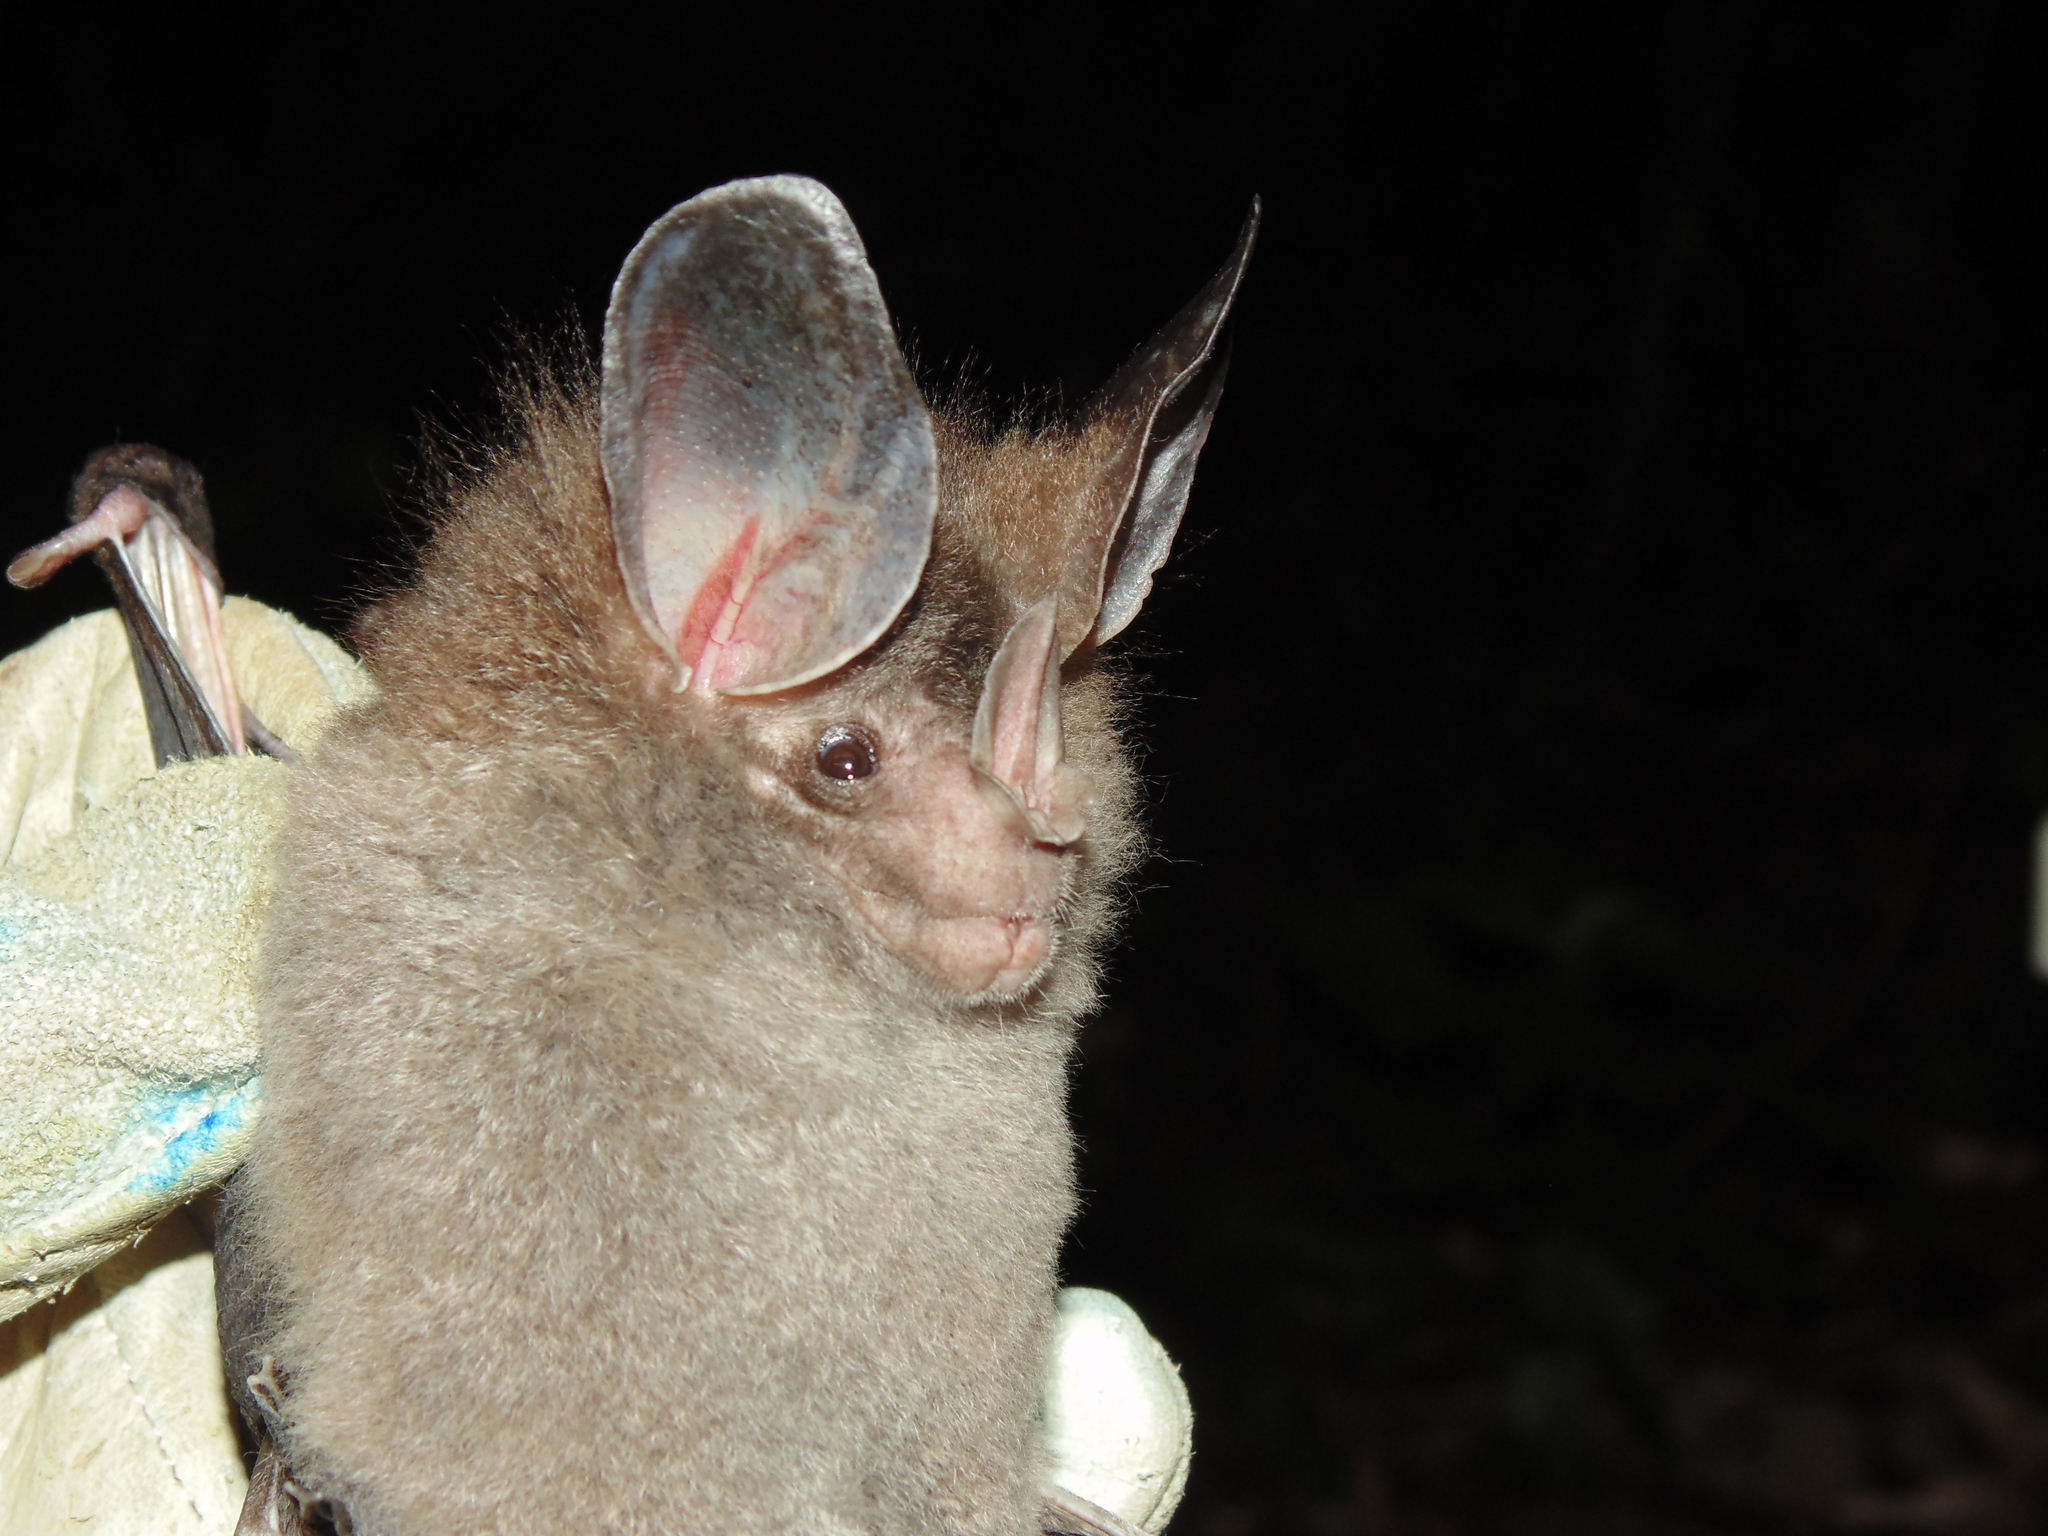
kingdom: Animalia
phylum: Chordata
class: Mammalia
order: Chiroptera
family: Phyllostomidae
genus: Chrotopterus
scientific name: Chrotopterus auritus
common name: Woolly false vampire bat
